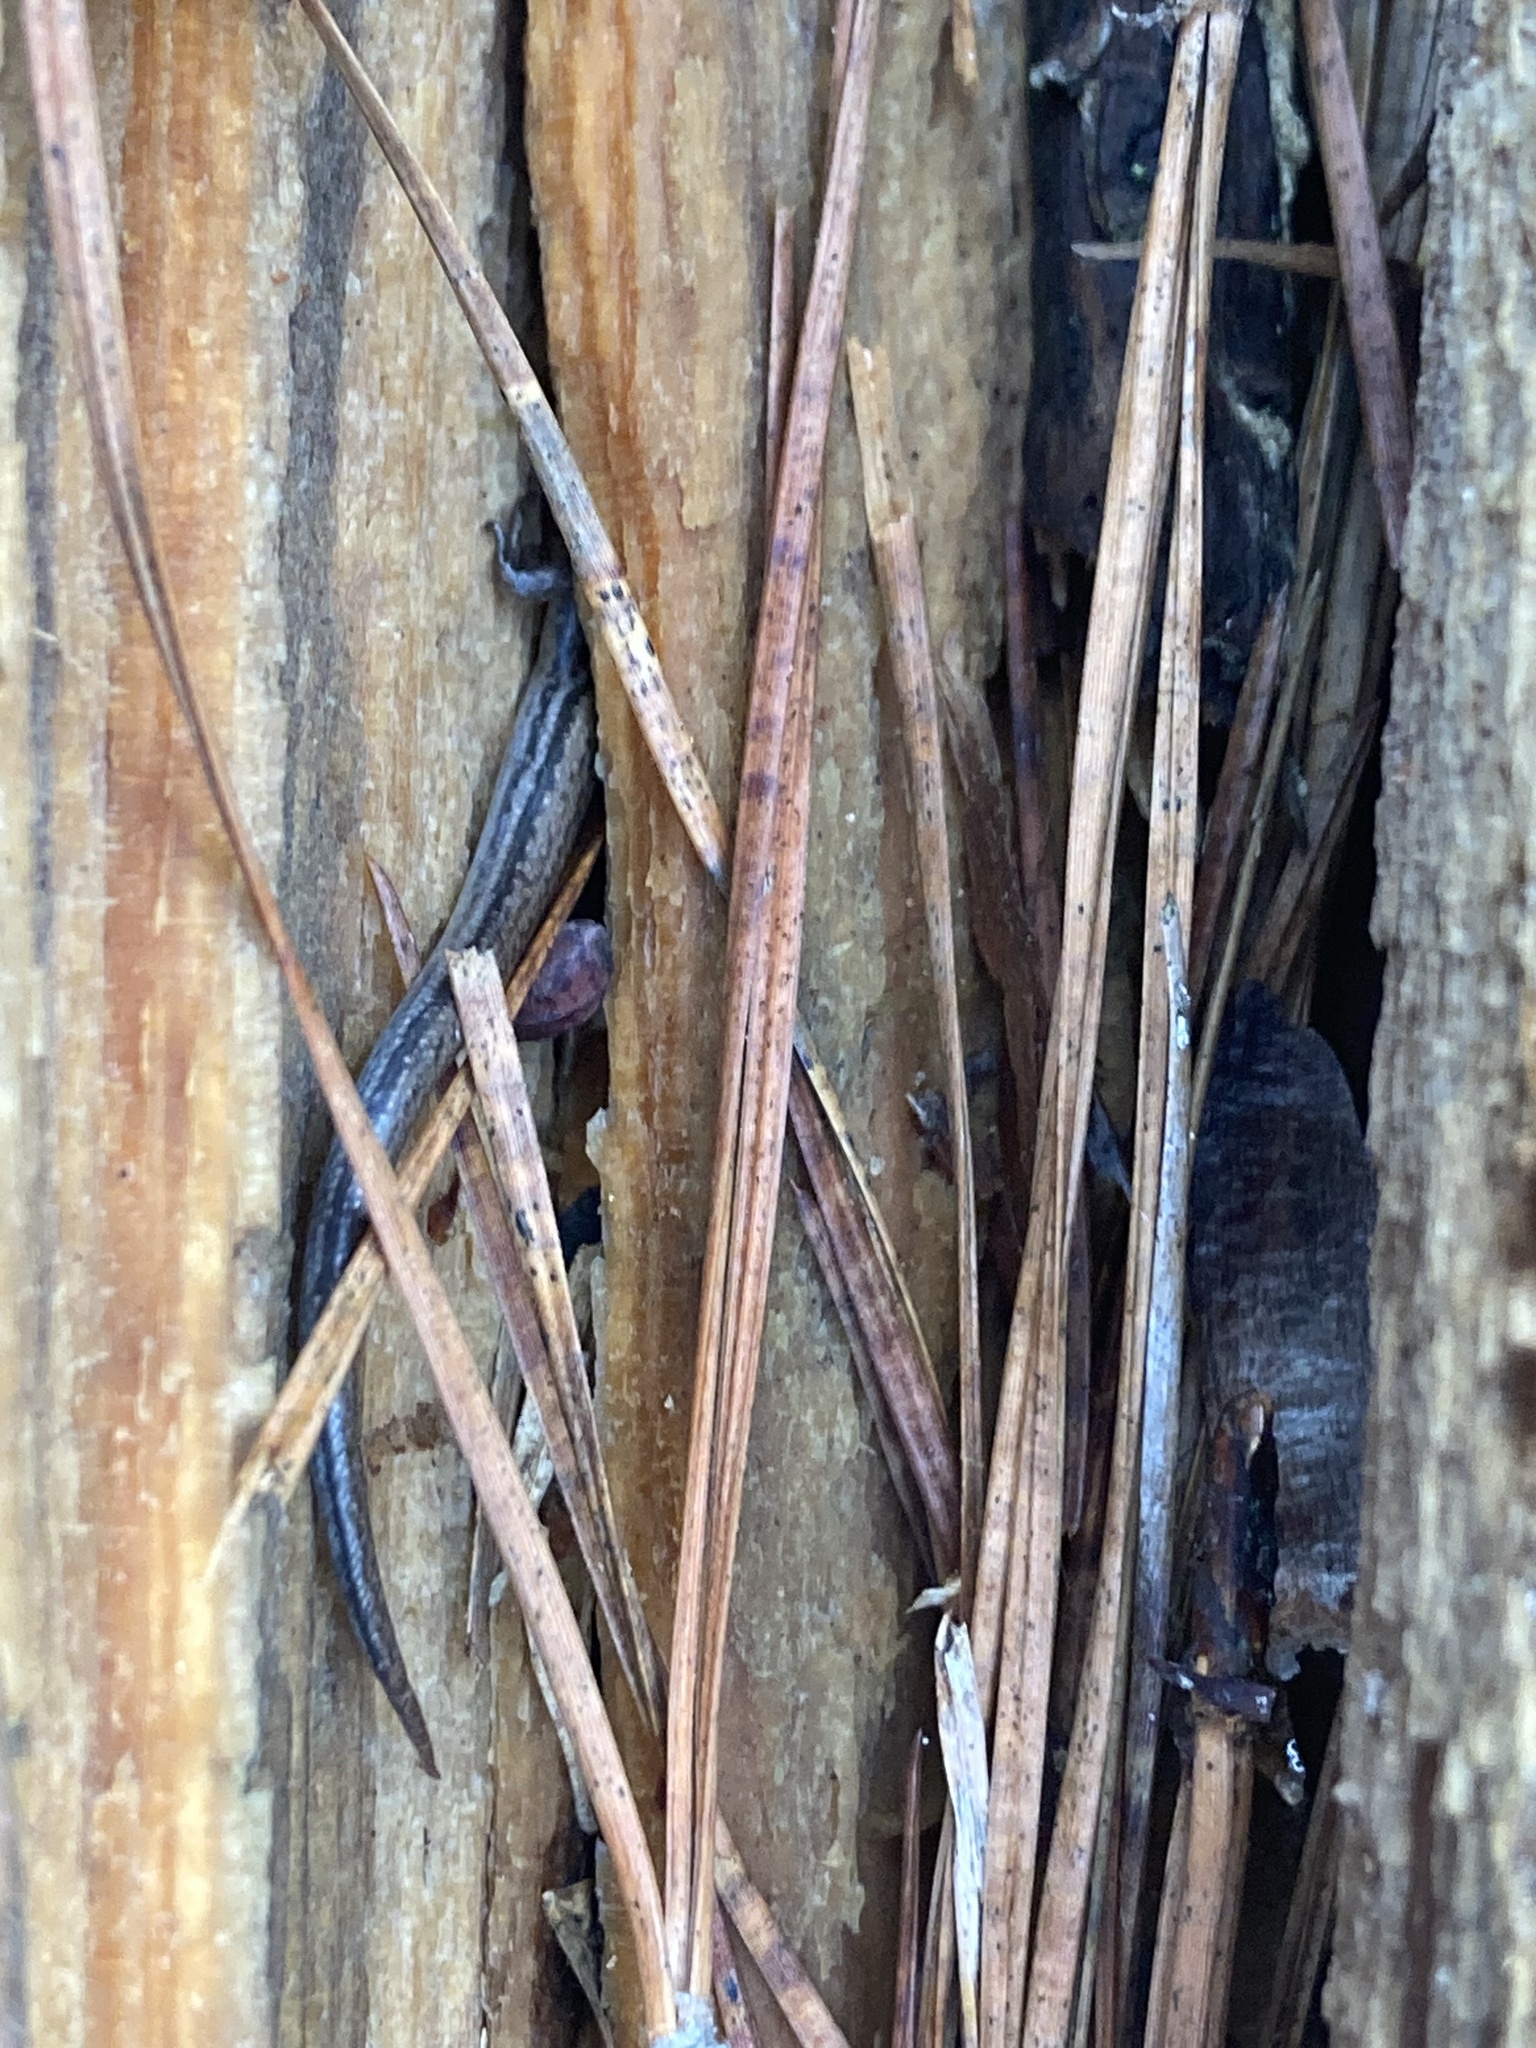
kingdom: Animalia
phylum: Chordata
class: Squamata
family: Scincidae
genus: Scincella
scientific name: Scincella lateralis
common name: Ground skink
